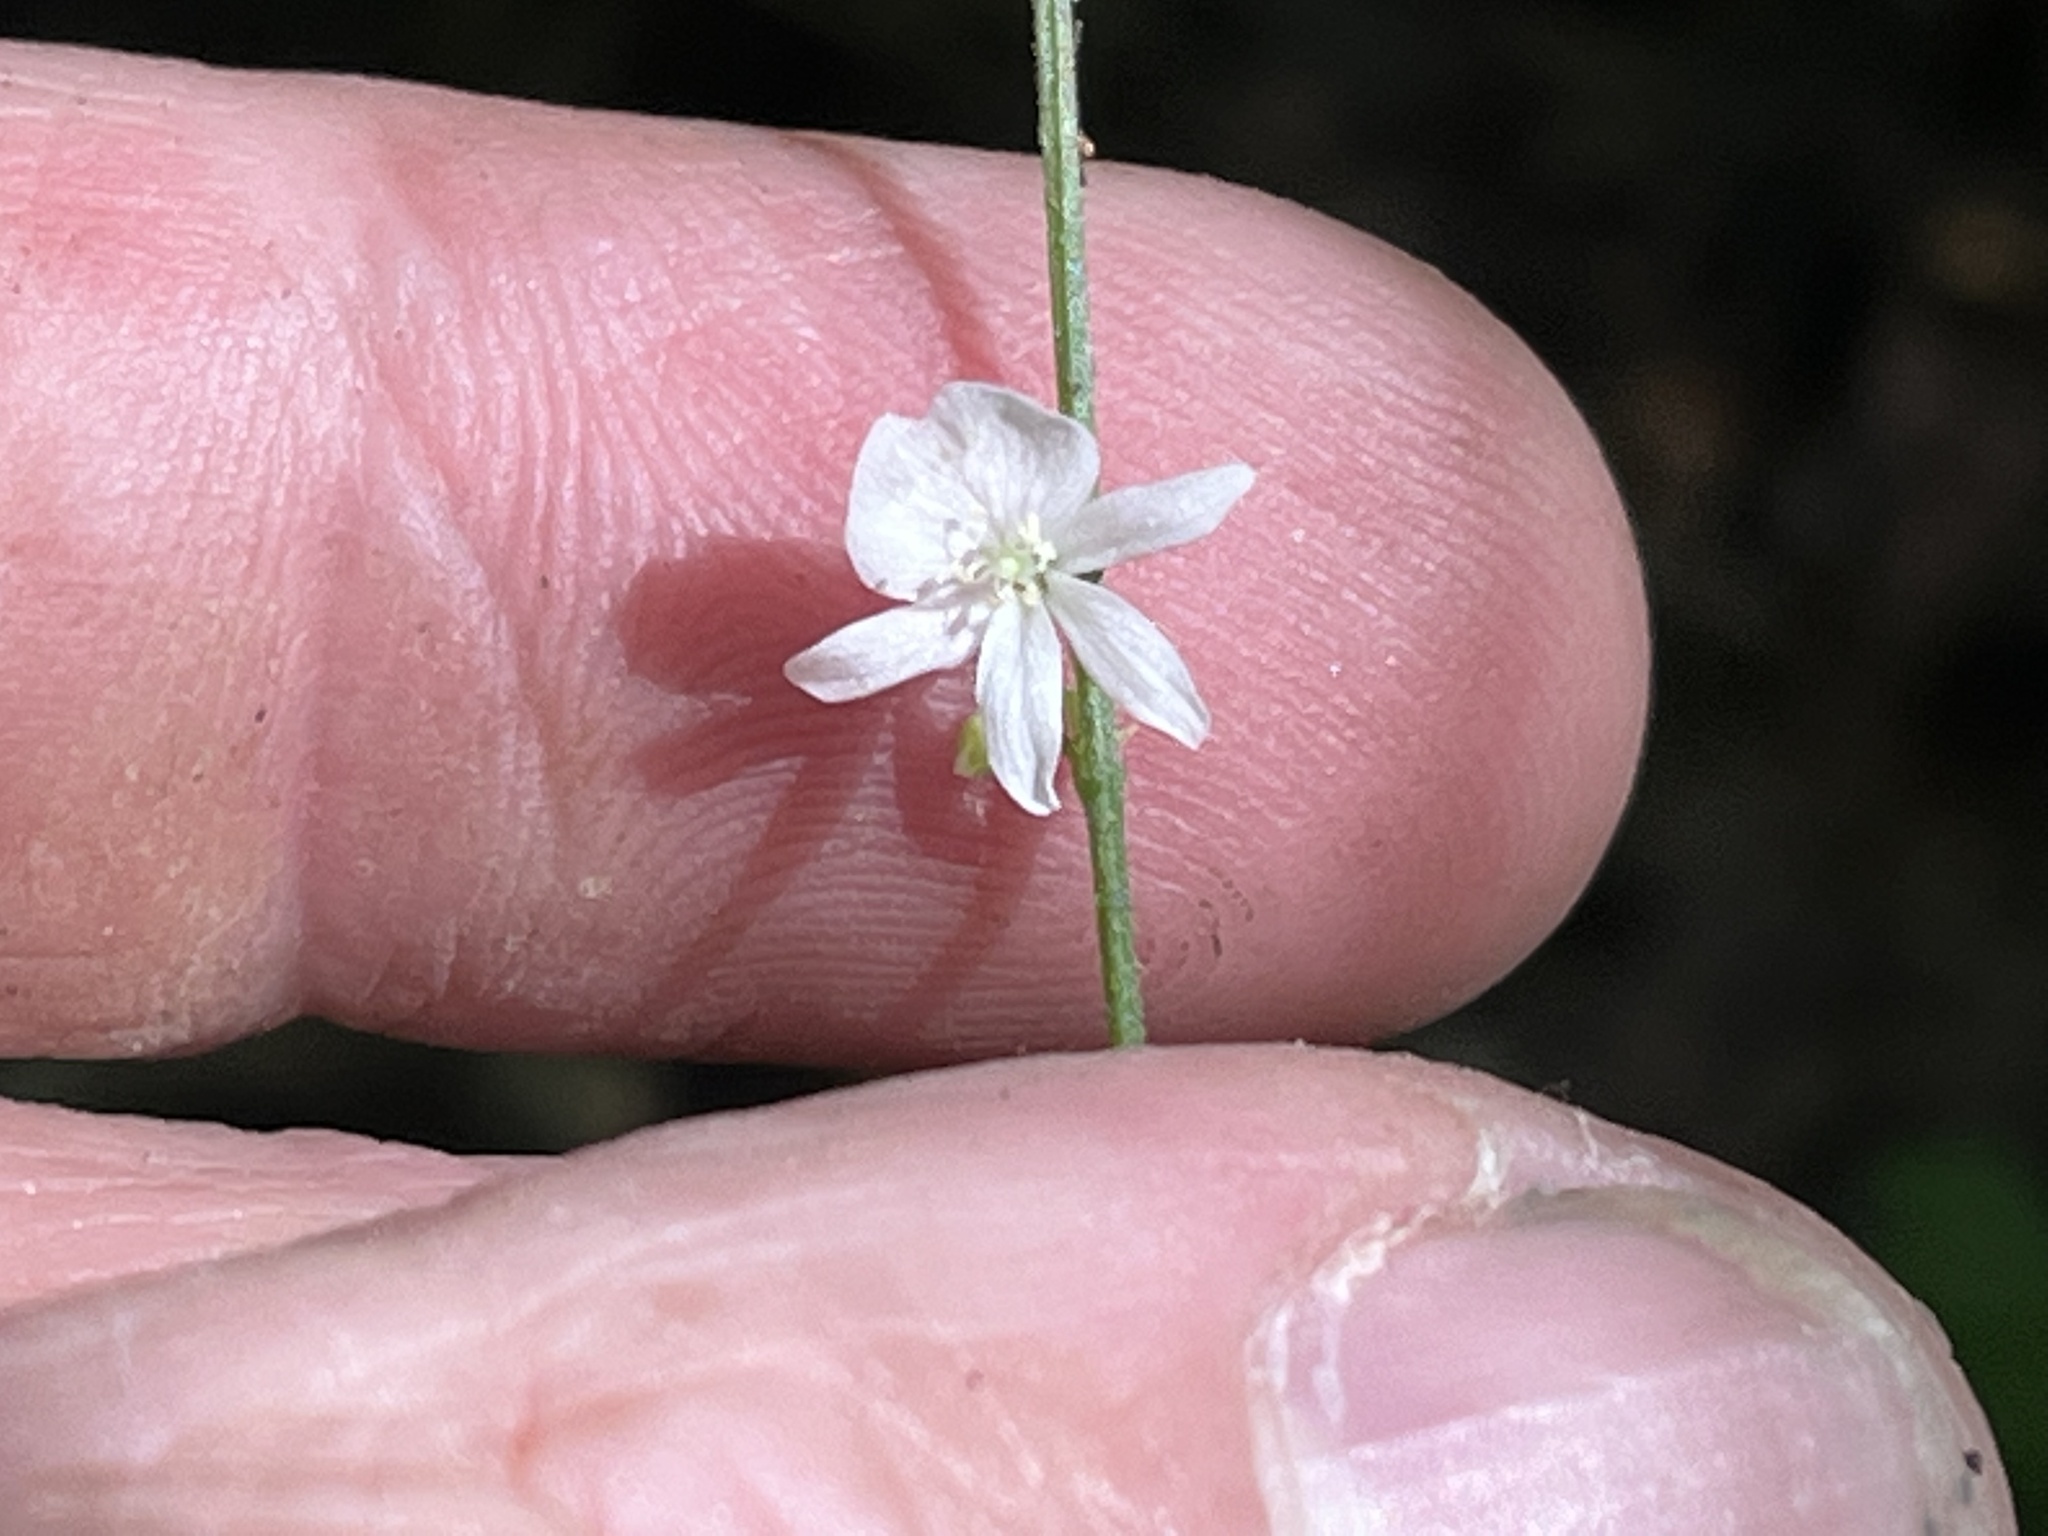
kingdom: Plantae
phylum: Tracheophyta
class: Magnoliopsida
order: Fabales
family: Fabaceae
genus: Hylodesmum
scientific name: Hylodesmum pauciflorum
